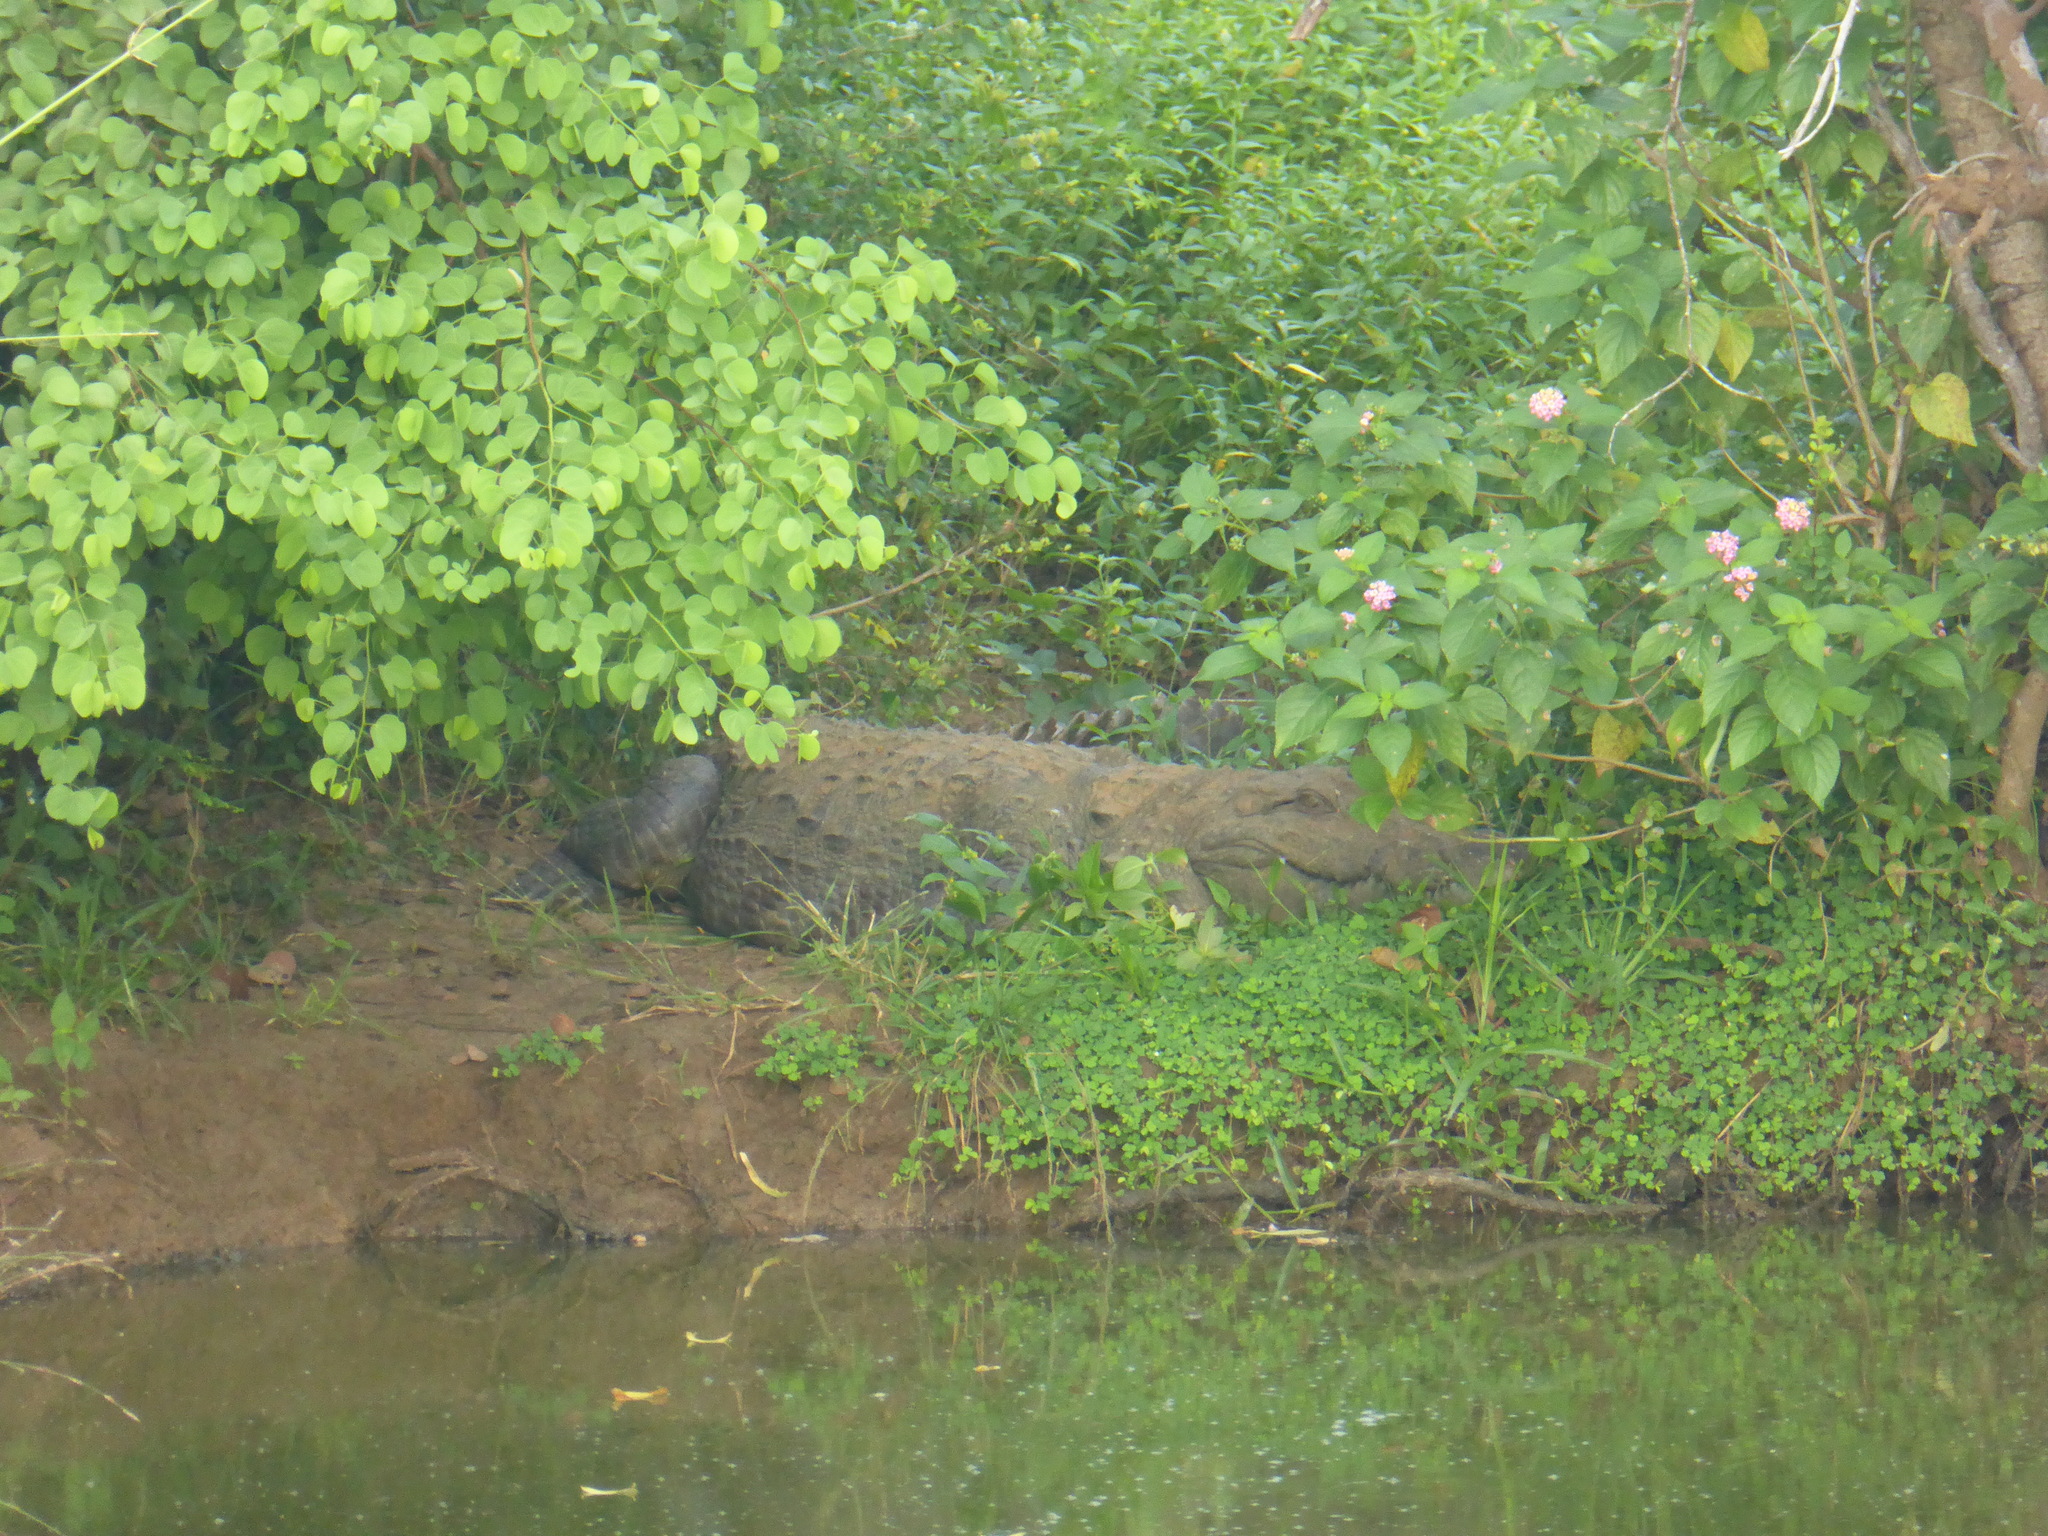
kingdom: Animalia
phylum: Chordata
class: Crocodylia
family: Crocodylidae
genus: Crocodylus
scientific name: Crocodylus palustris
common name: Mugger crocodile
